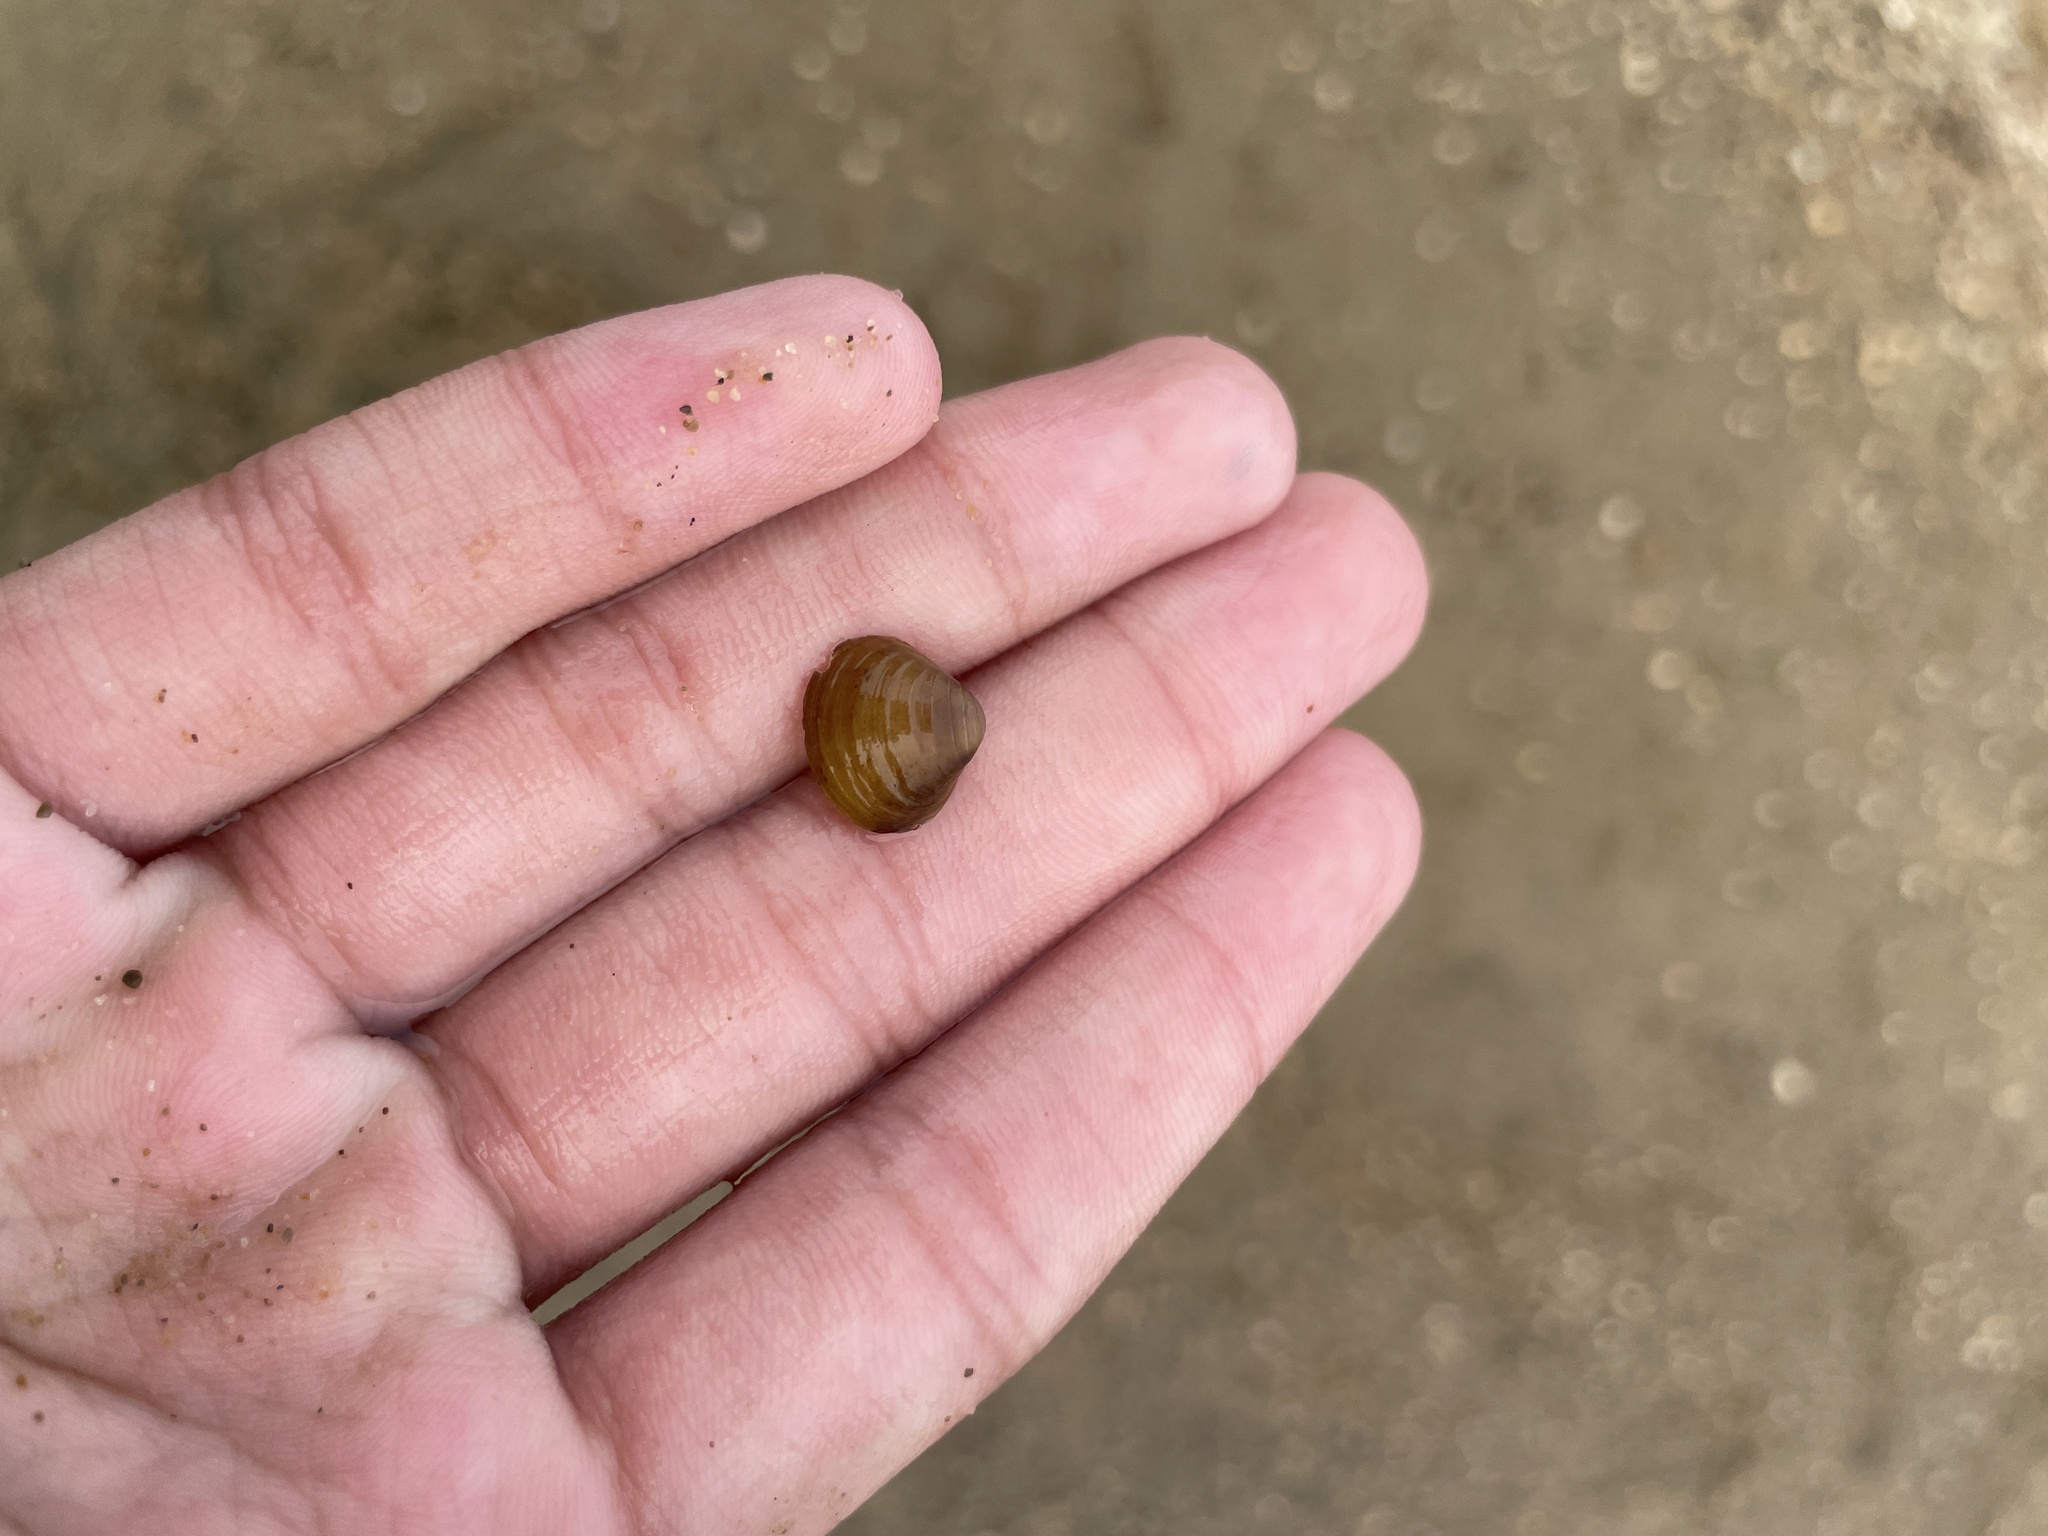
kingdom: Animalia
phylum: Mollusca
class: Bivalvia
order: Venerida
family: Cyrenidae
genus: Corbicula
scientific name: Corbicula fluminea
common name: Asian clam
